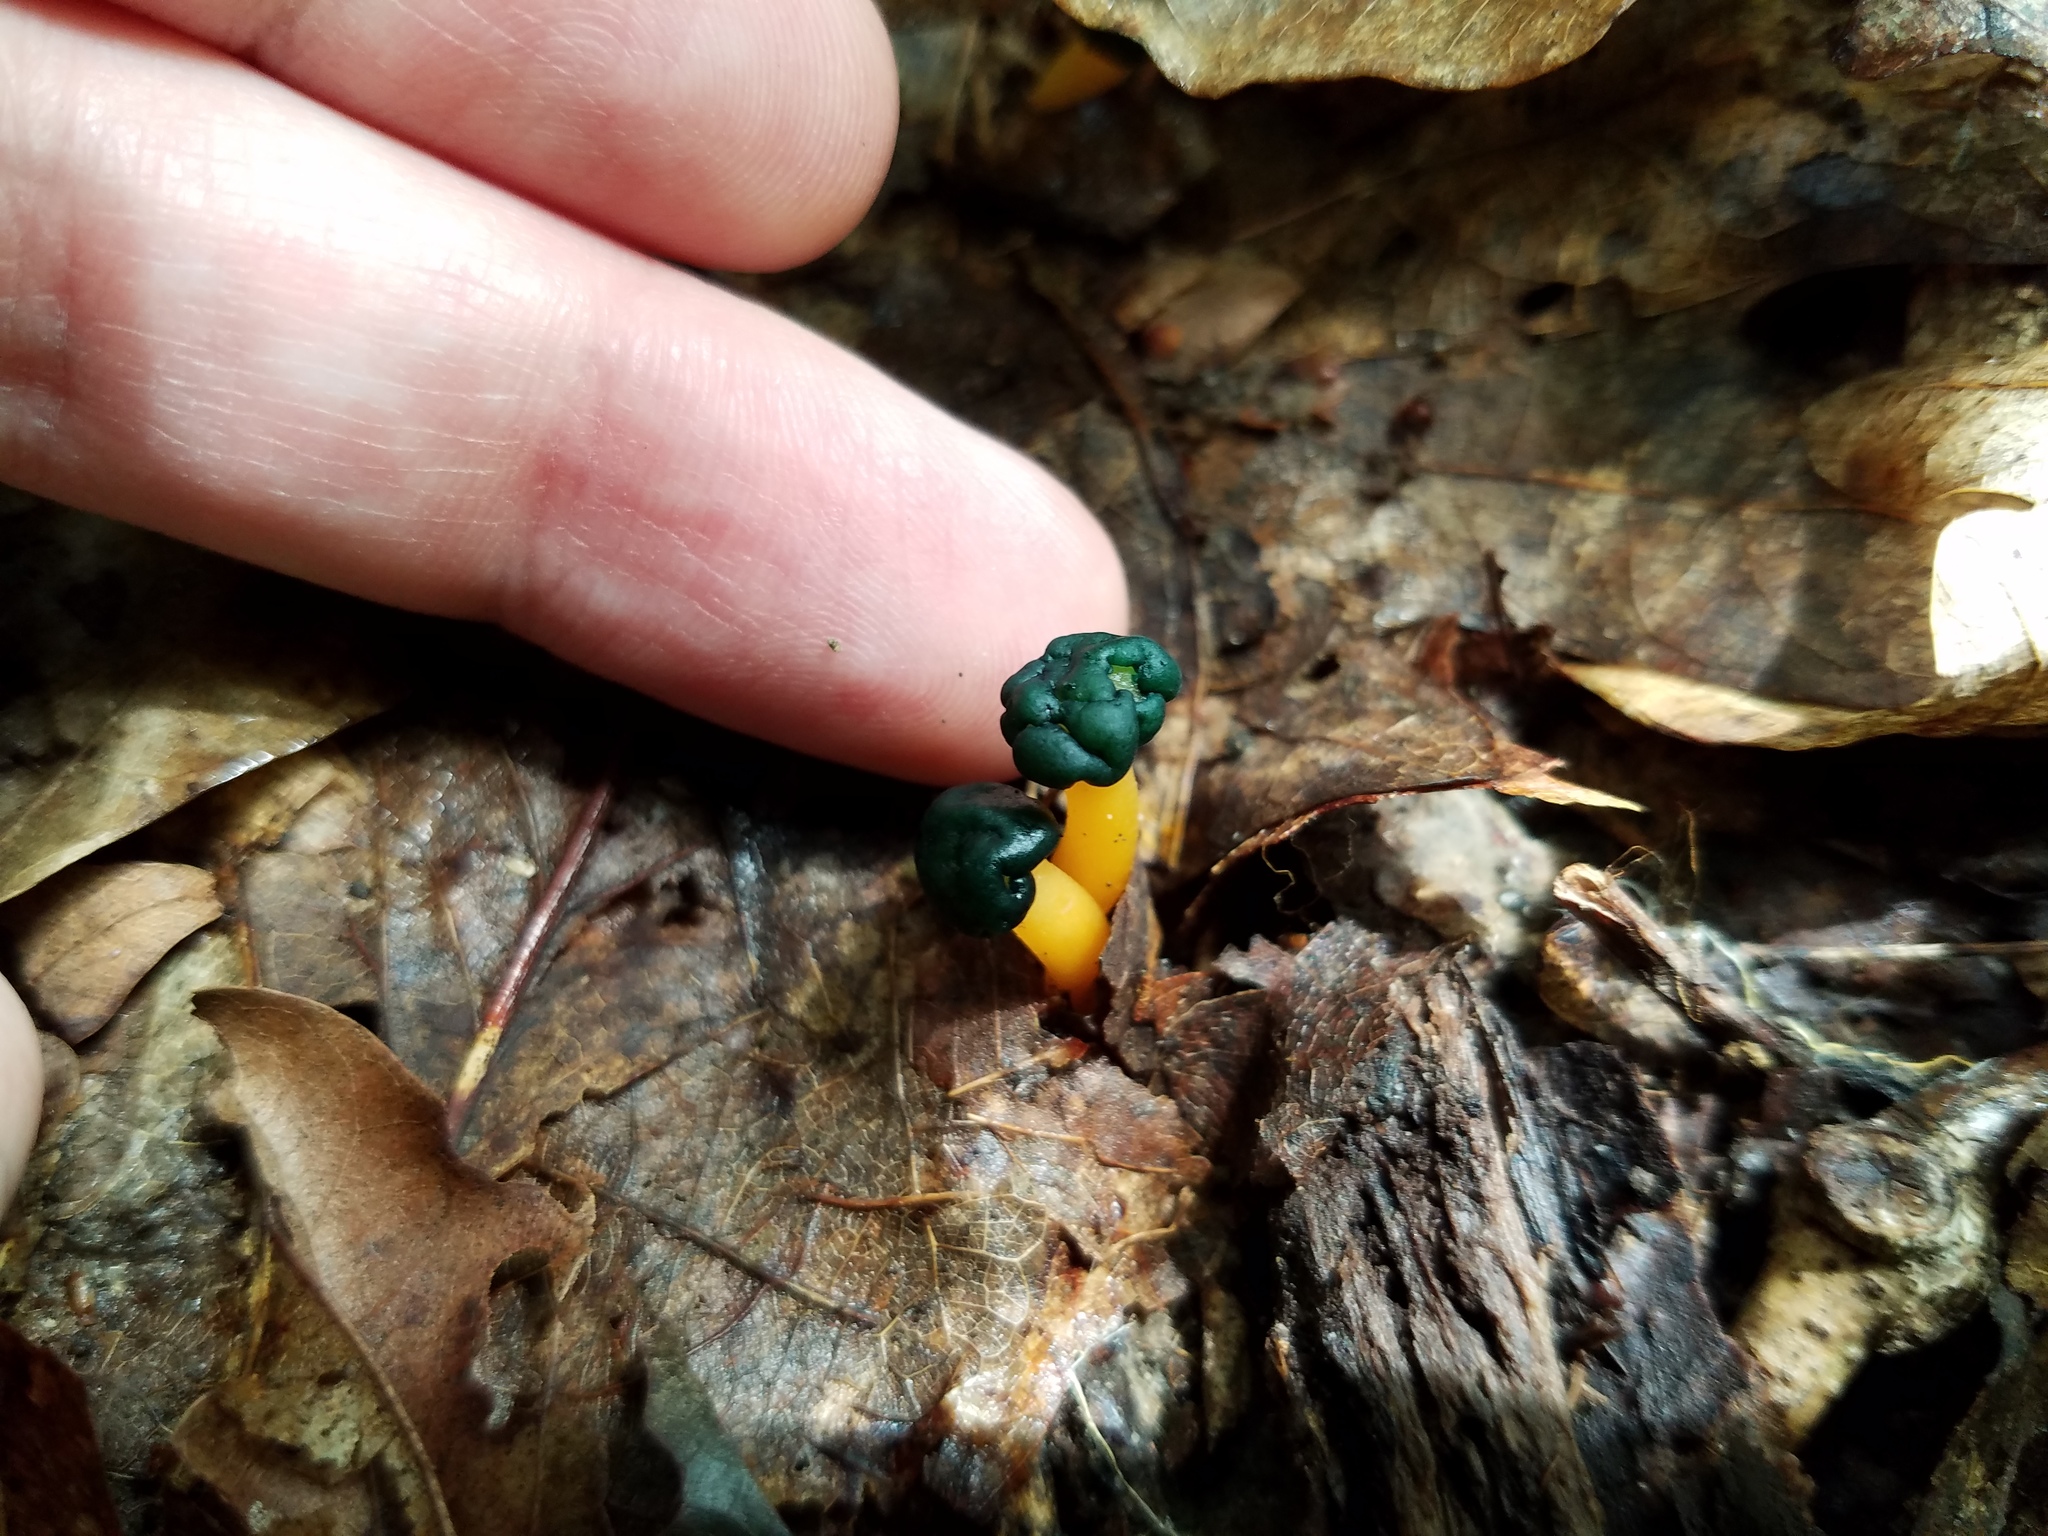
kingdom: Fungi
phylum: Ascomycota
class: Leotiomycetes
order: Leotiales
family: Leotiaceae
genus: Leotia
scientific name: Leotia lubrica
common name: Jellybaby
